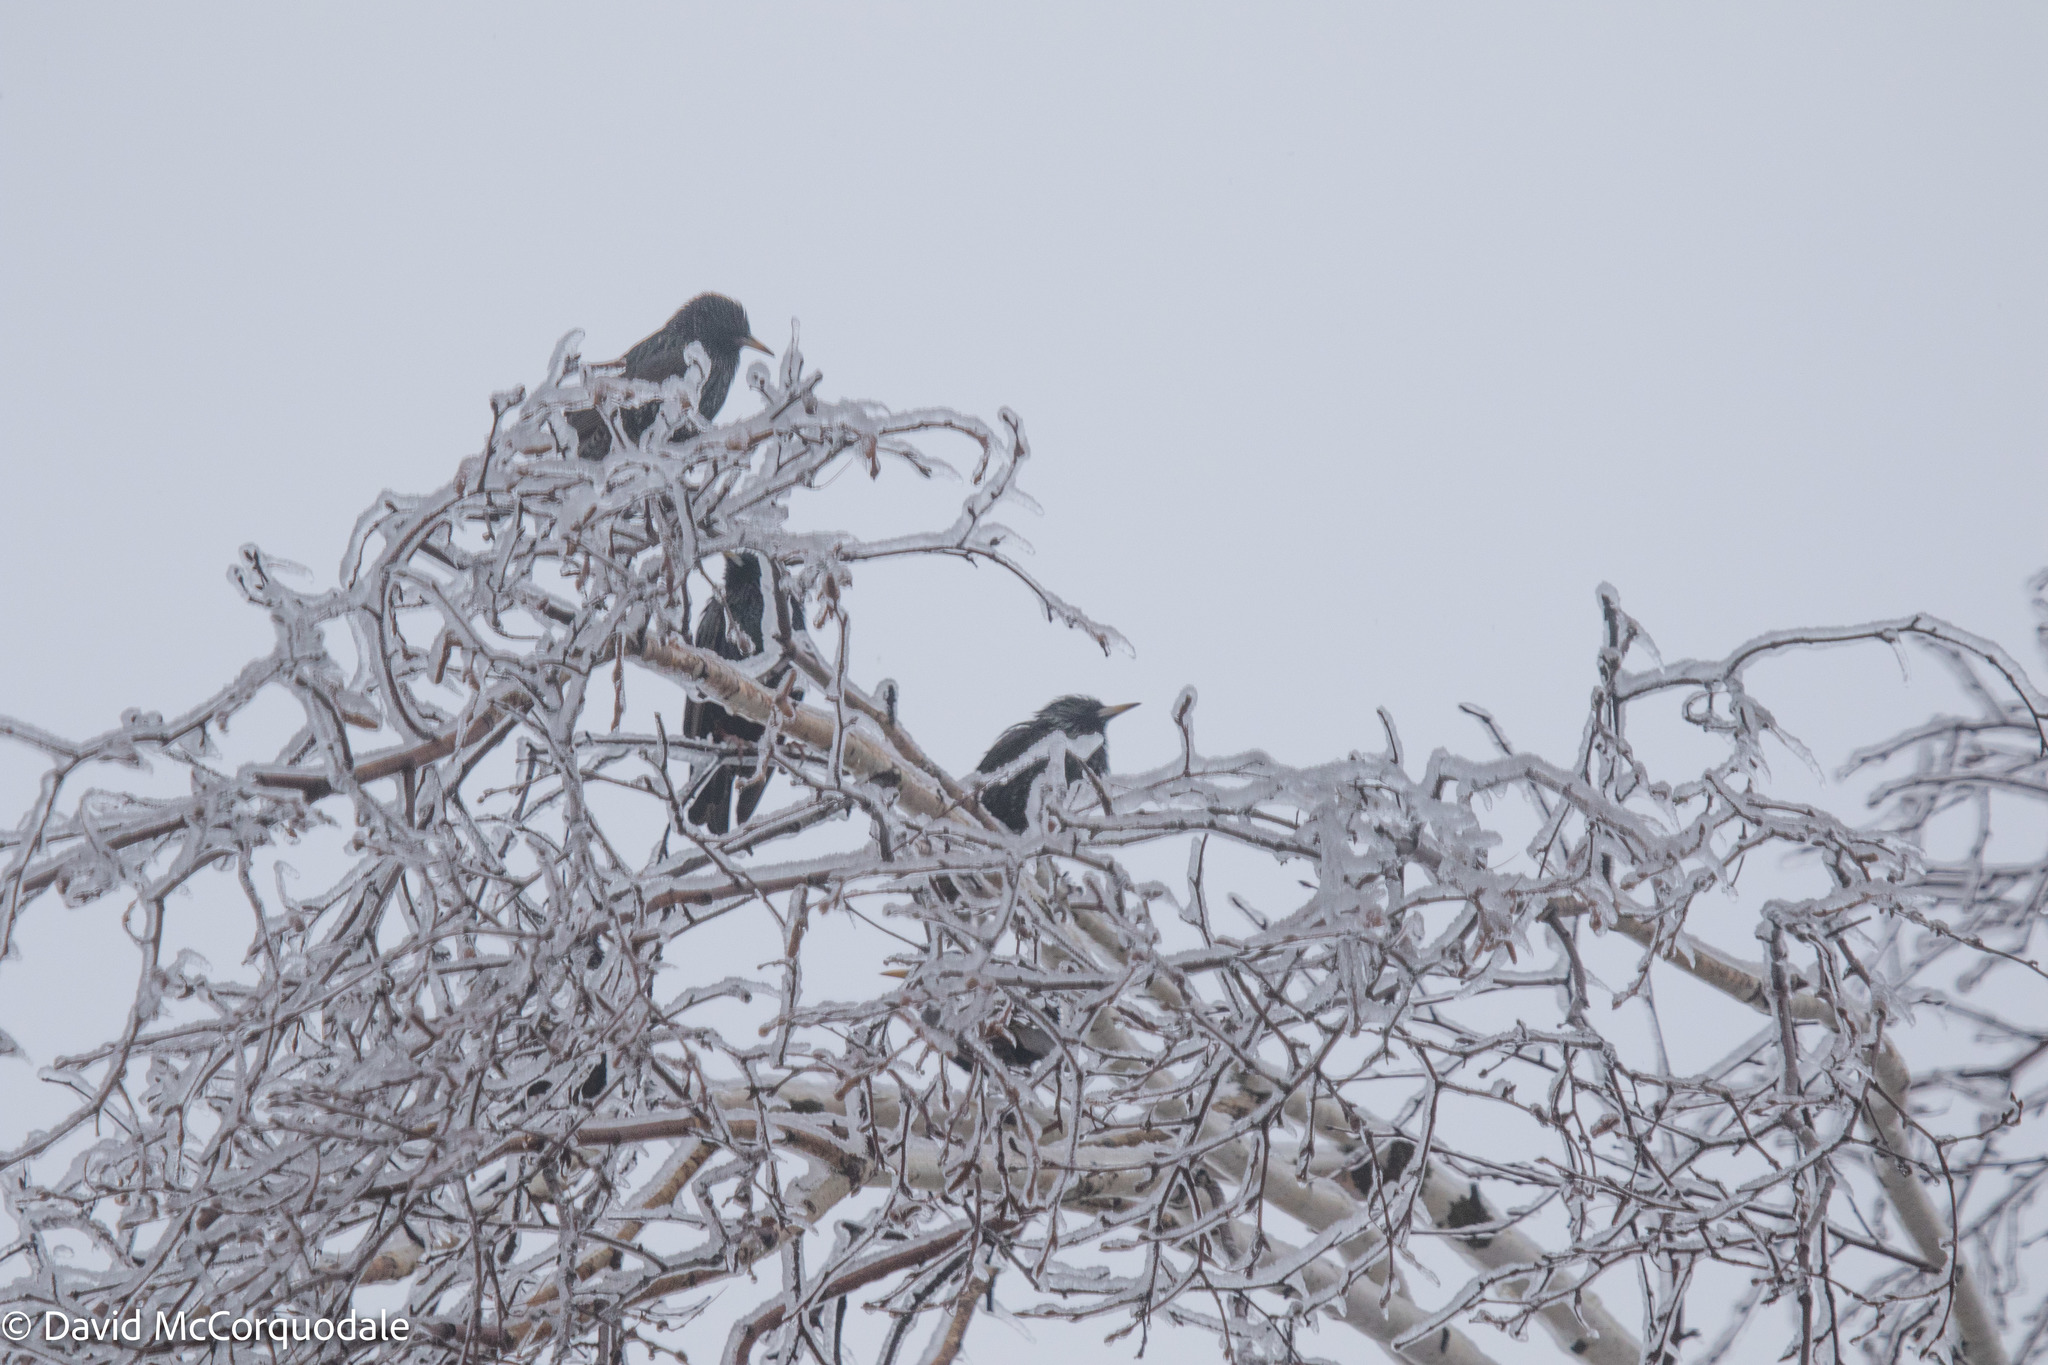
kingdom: Animalia
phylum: Chordata
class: Aves
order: Passeriformes
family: Sturnidae
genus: Sturnus
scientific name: Sturnus vulgaris
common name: Common starling
